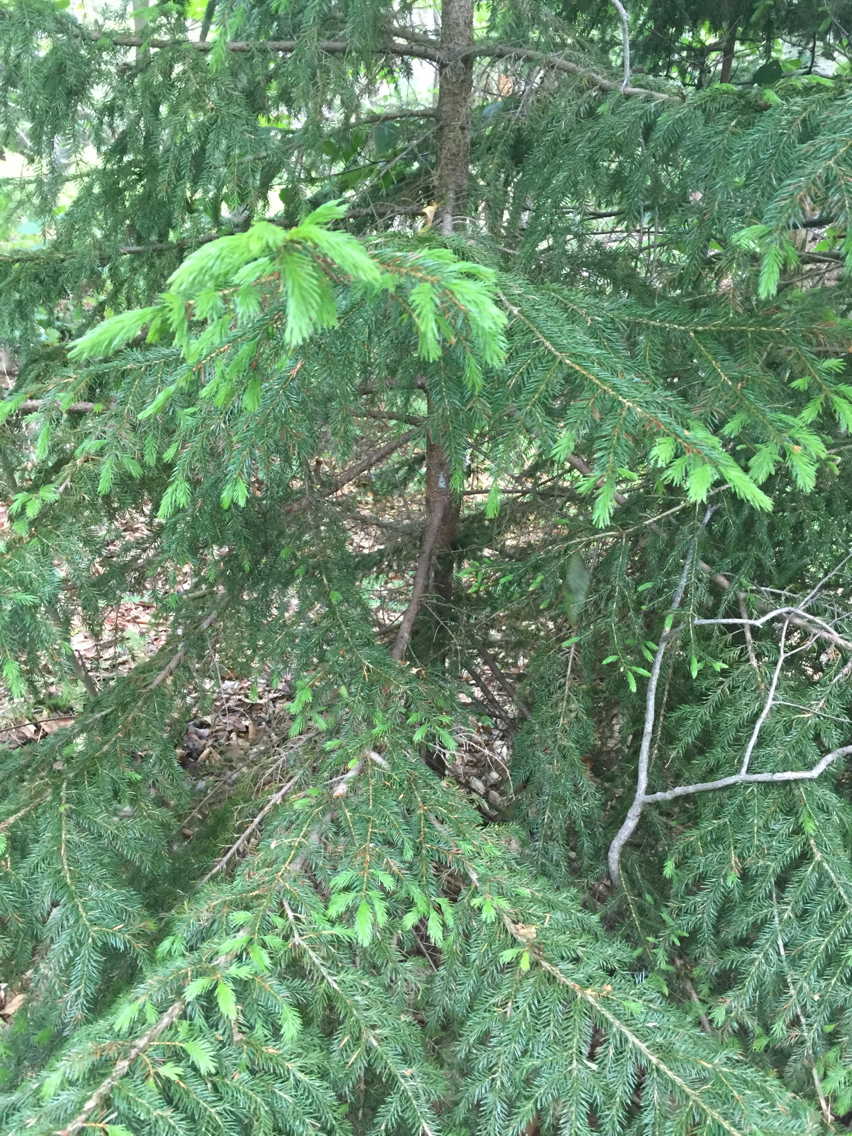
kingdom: Plantae
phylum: Tracheophyta
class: Pinopsida
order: Pinales
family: Pinaceae
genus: Picea
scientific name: Picea rubens
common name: Red spruce
